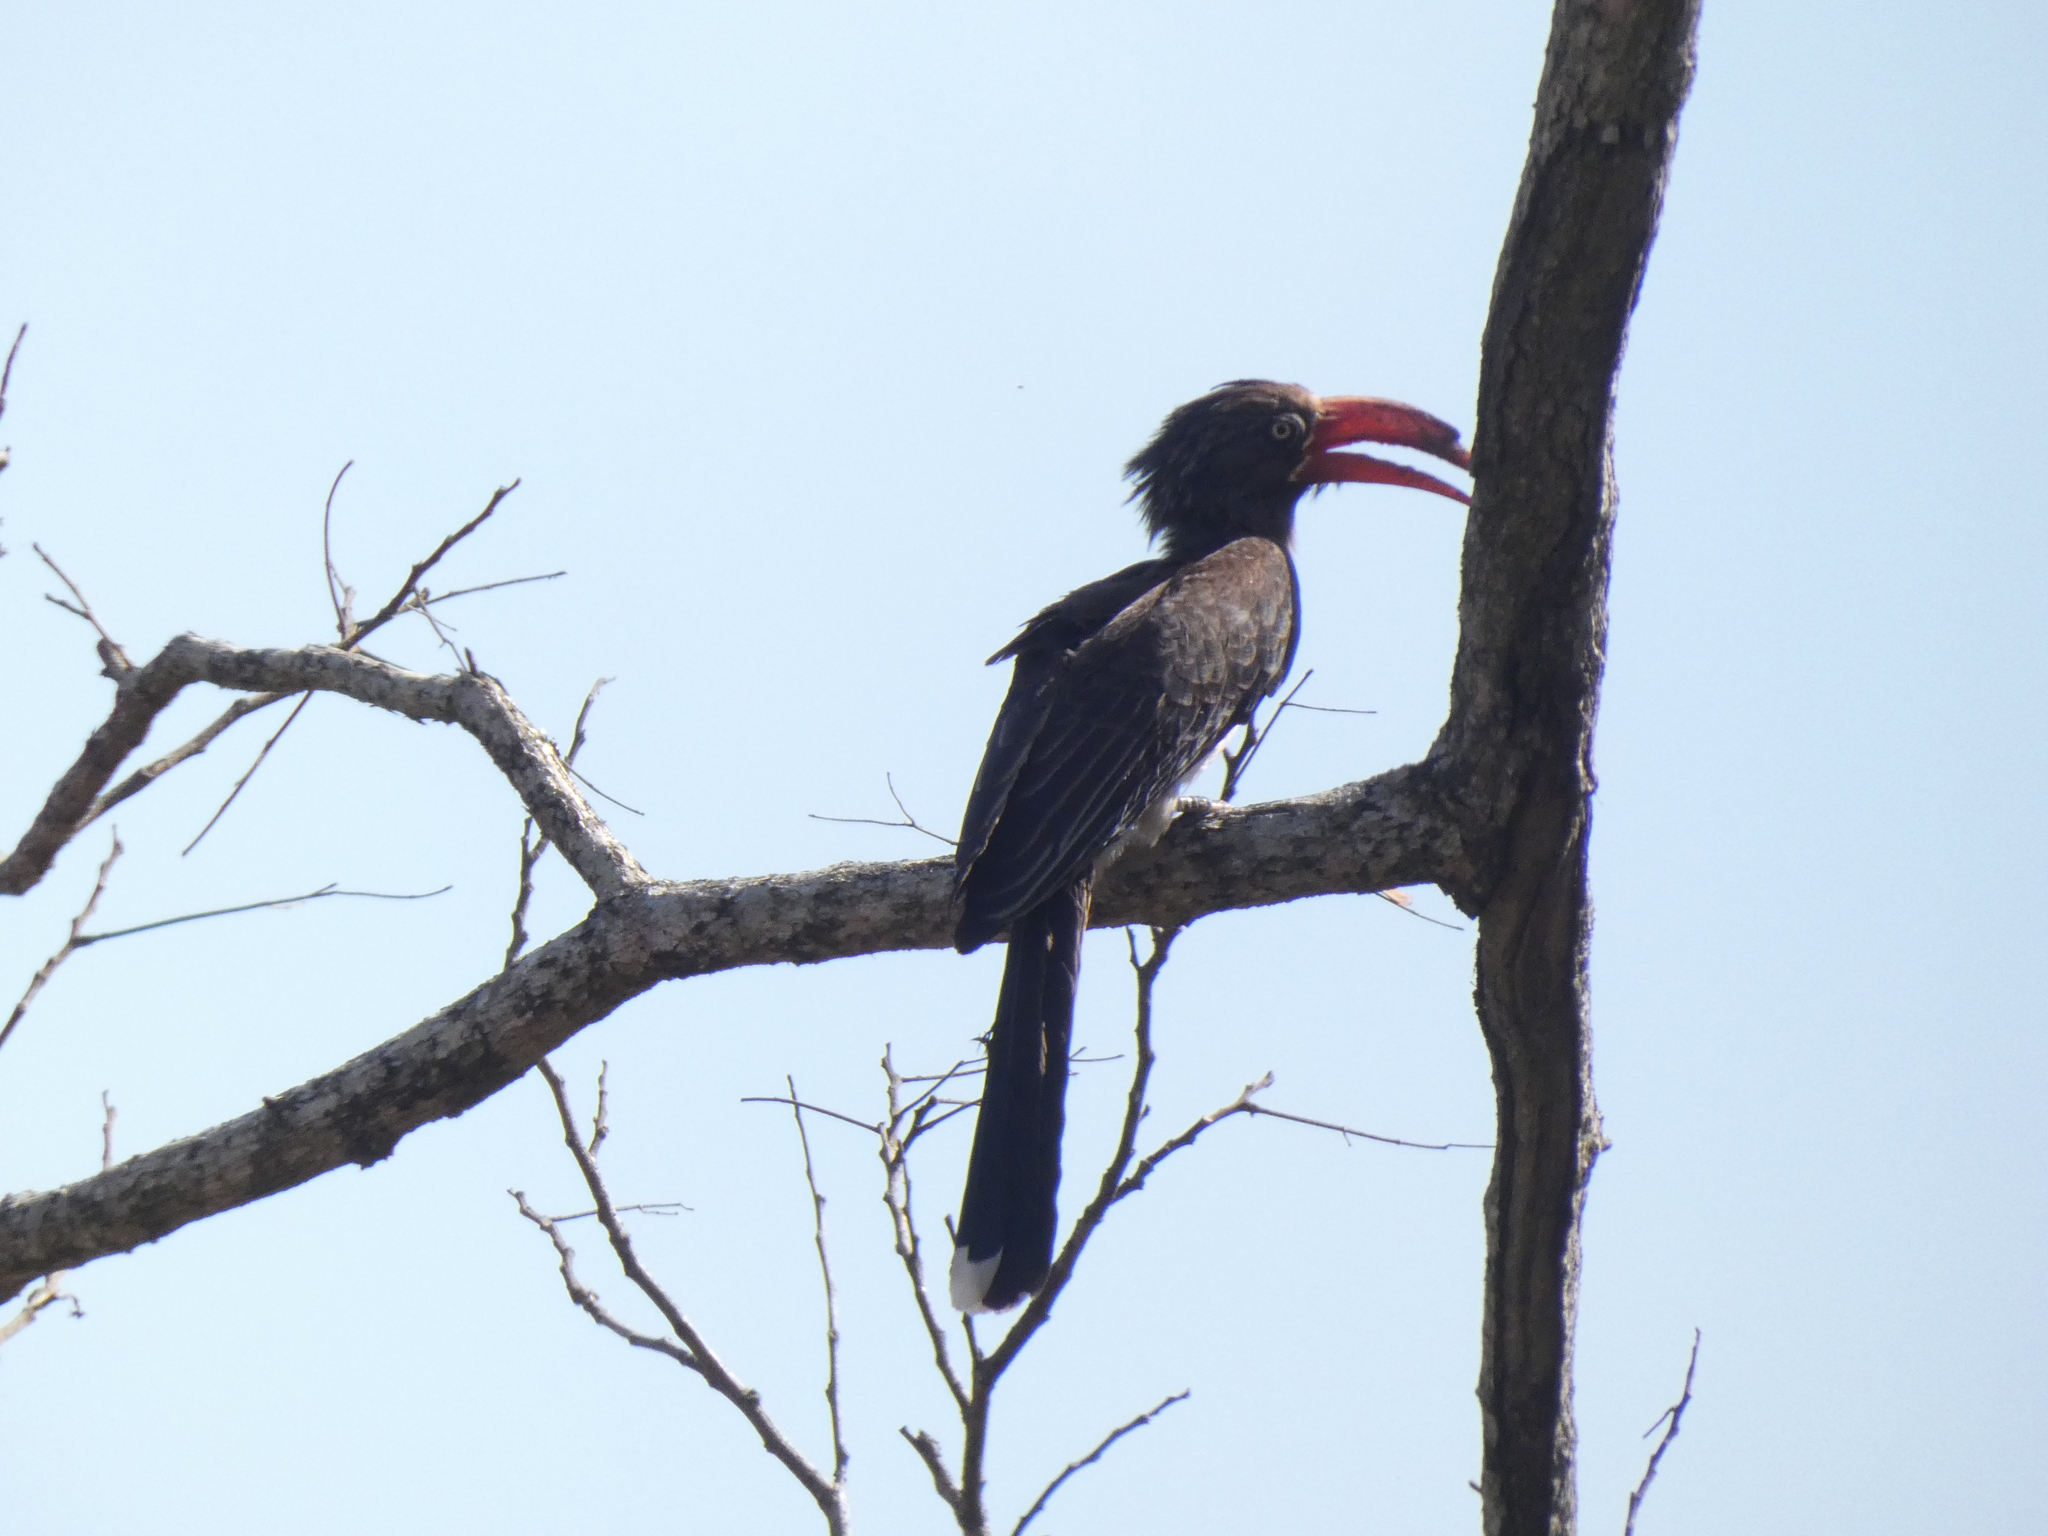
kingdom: Animalia
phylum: Chordata
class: Aves
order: Bucerotiformes
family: Bucerotidae
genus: Lophoceros
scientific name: Lophoceros alboterminatus
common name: Crowned hornbill
